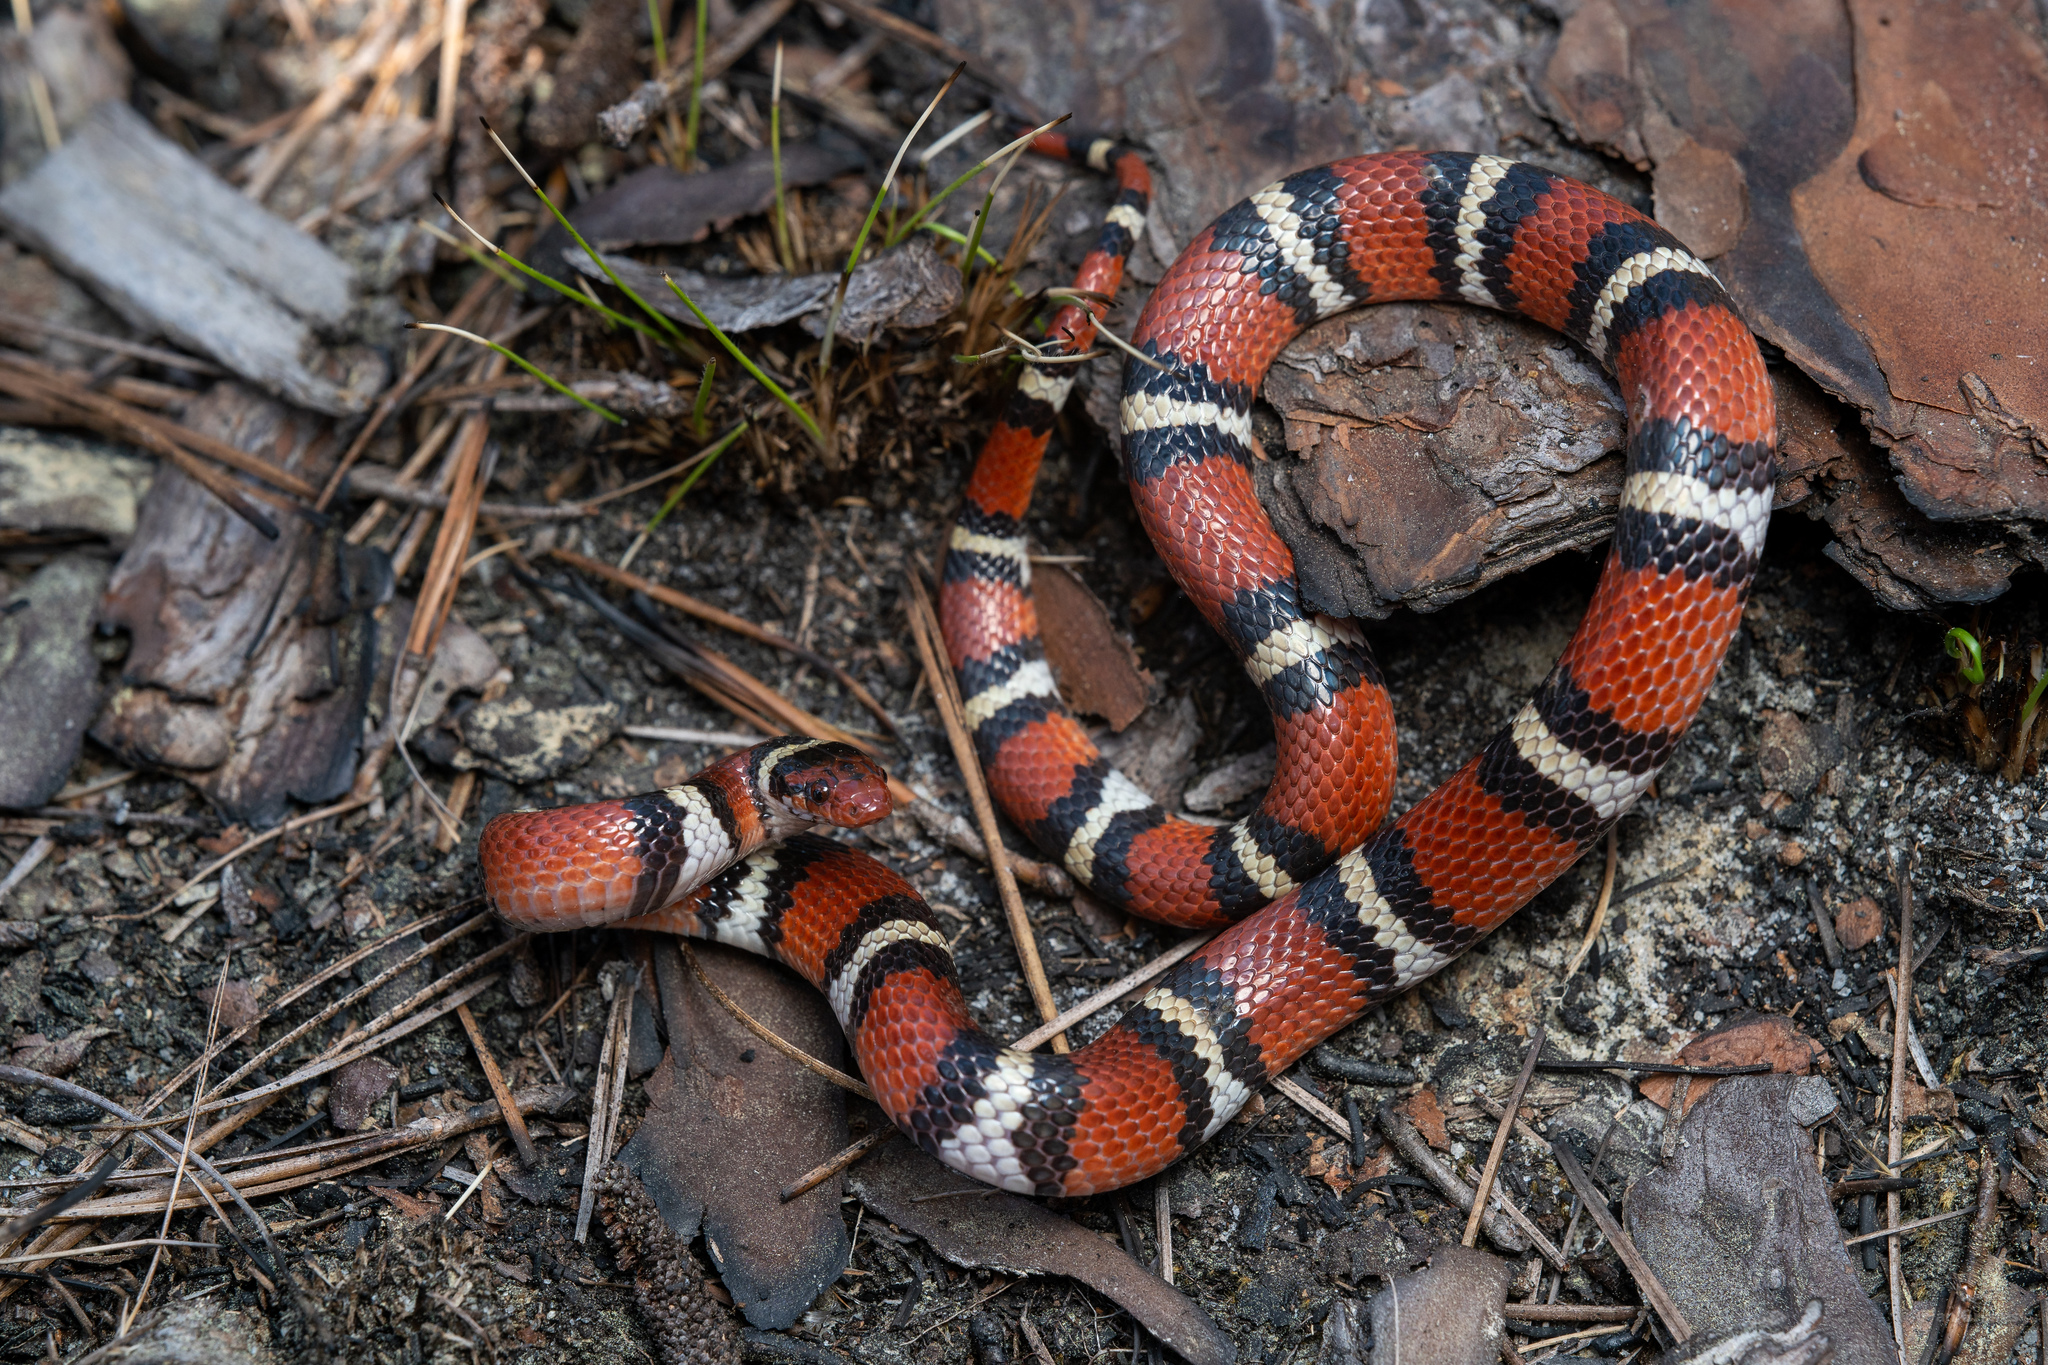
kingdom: Animalia
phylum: Chordata
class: Squamata
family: Colubridae
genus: Lampropeltis
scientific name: Lampropeltis elapsoides
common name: Scarlet kingsnake
